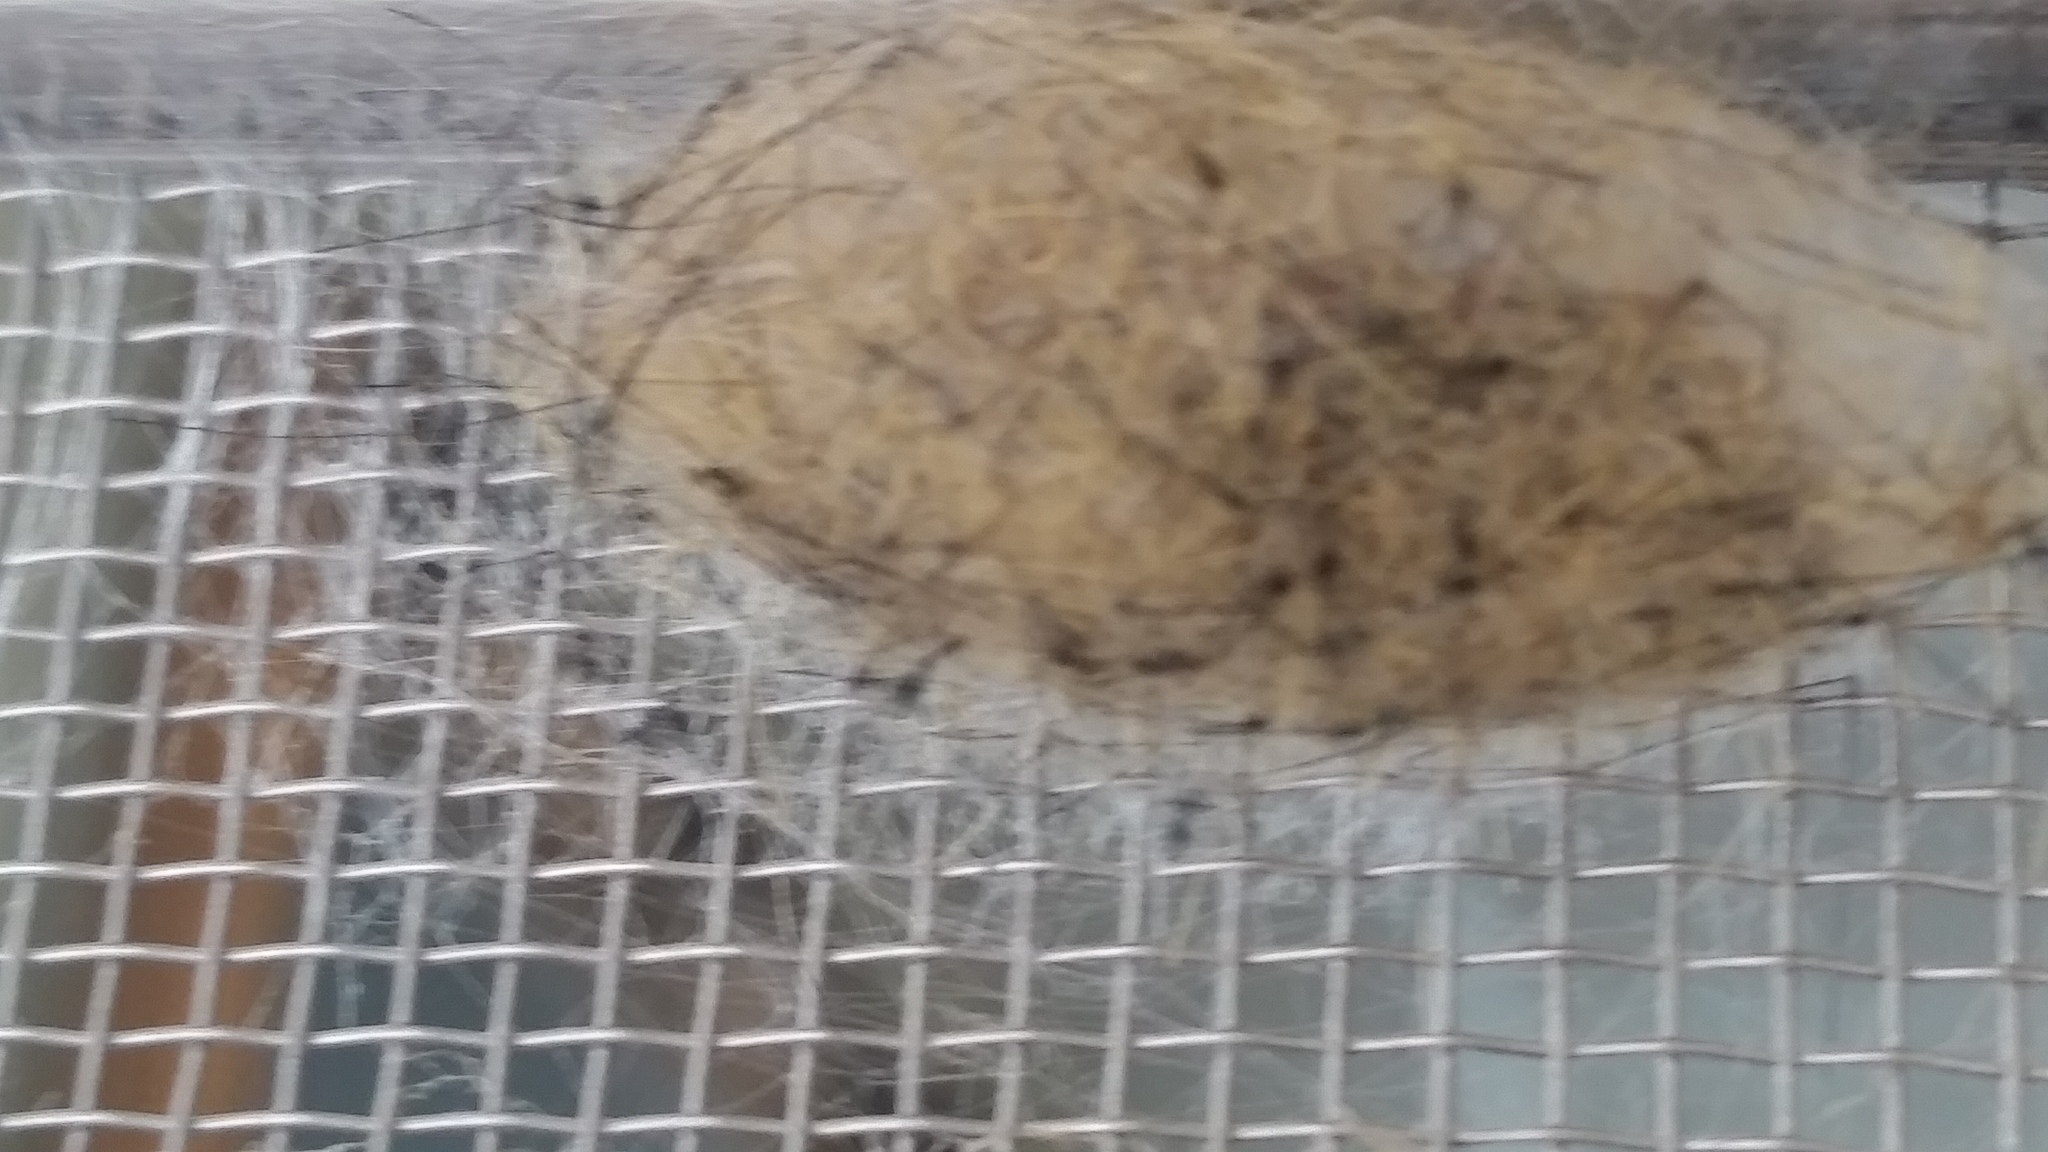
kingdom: Animalia
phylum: Arthropoda
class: Insecta
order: Lepidoptera
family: Erebidae
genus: Orgyia
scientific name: Orgyia vetusta
